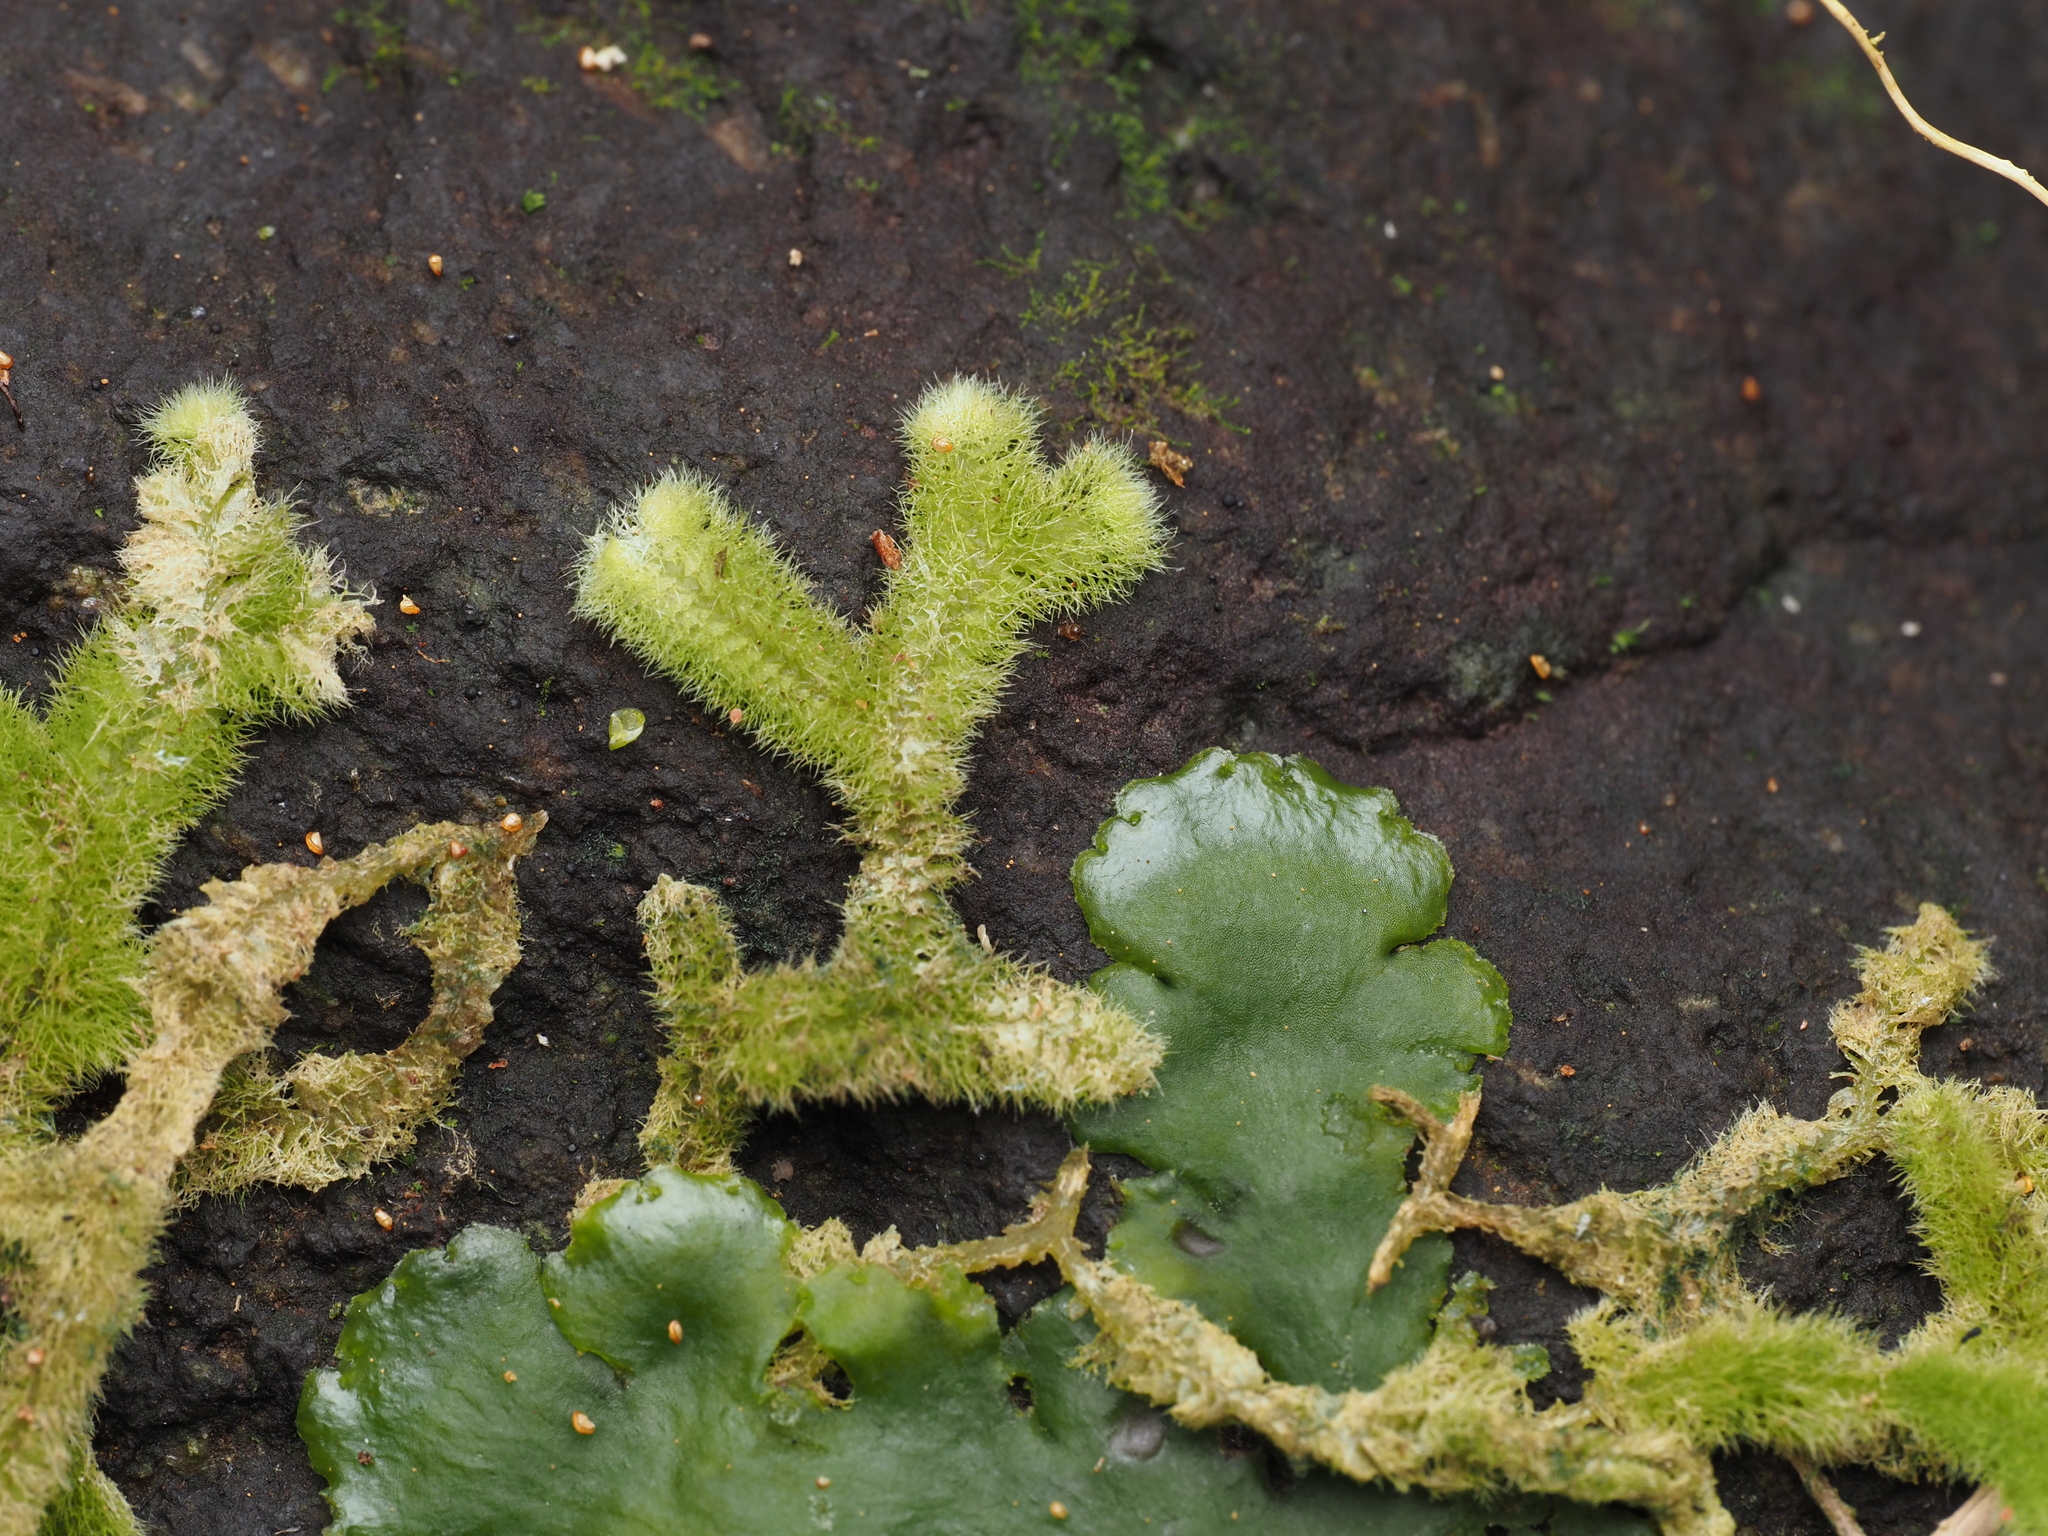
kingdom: Plantae
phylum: Marchantiophyta
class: Jungermanniopsida
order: Jungermanniales
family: Trichocoleaceae
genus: Leiomitra
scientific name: Leiomitra lanata
